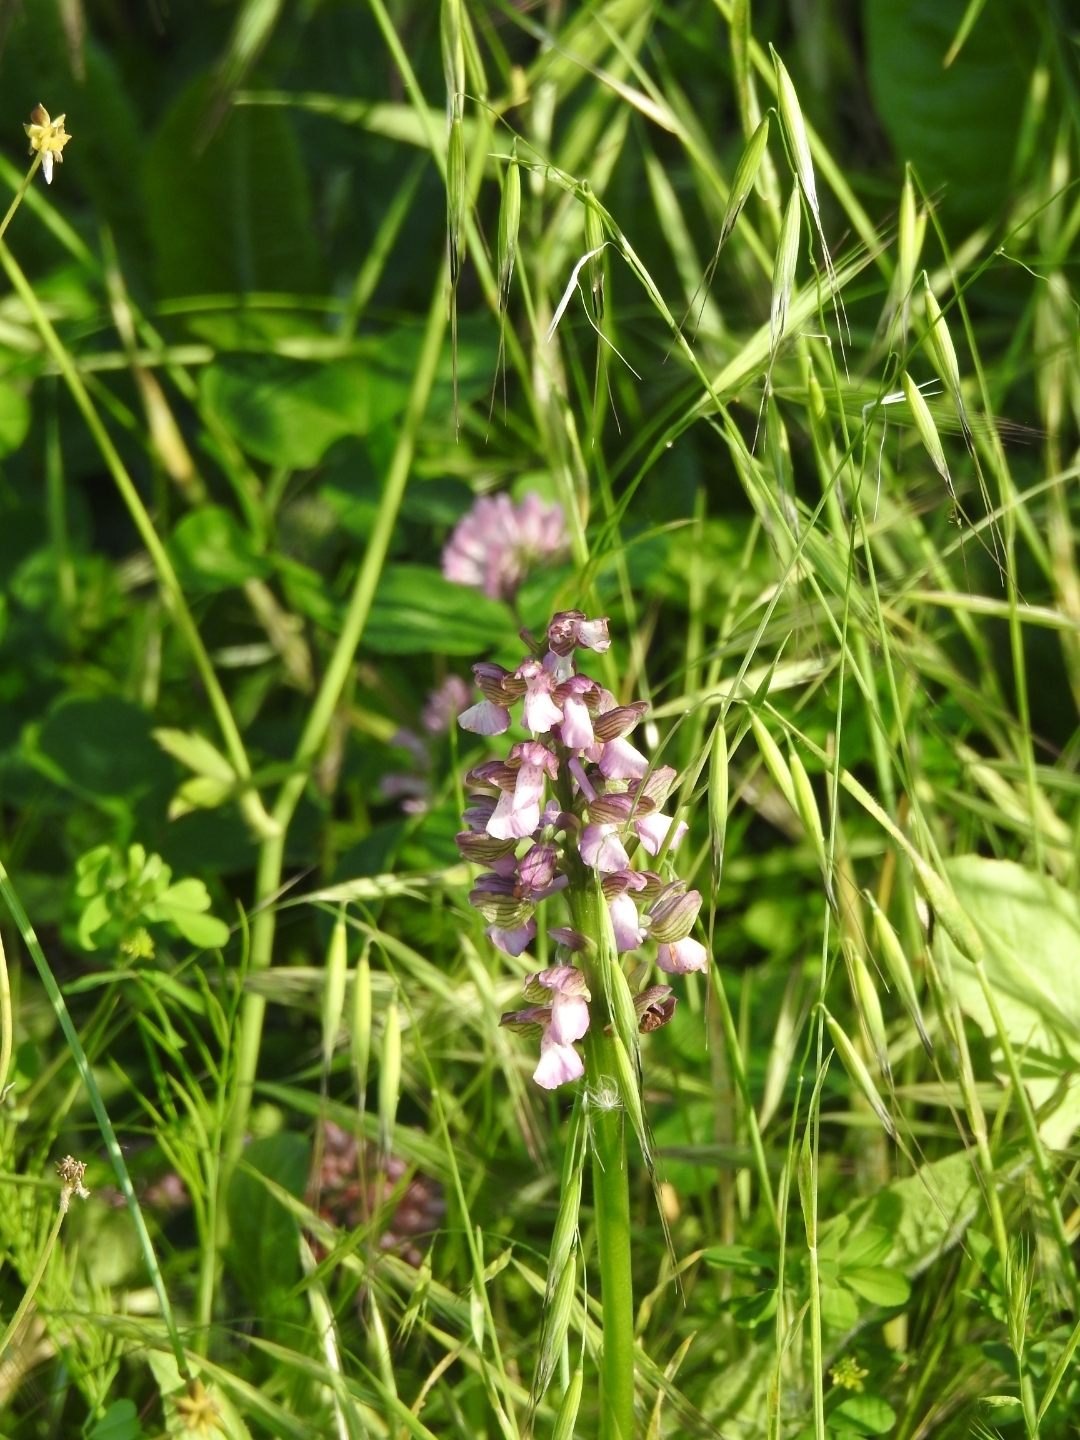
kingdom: Plantae
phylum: Tracheophyta
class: Liliopsida
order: Asparagales
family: Orchidaceae
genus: Anacamptis
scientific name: Anacamptis morio
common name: Green-winged orchid
